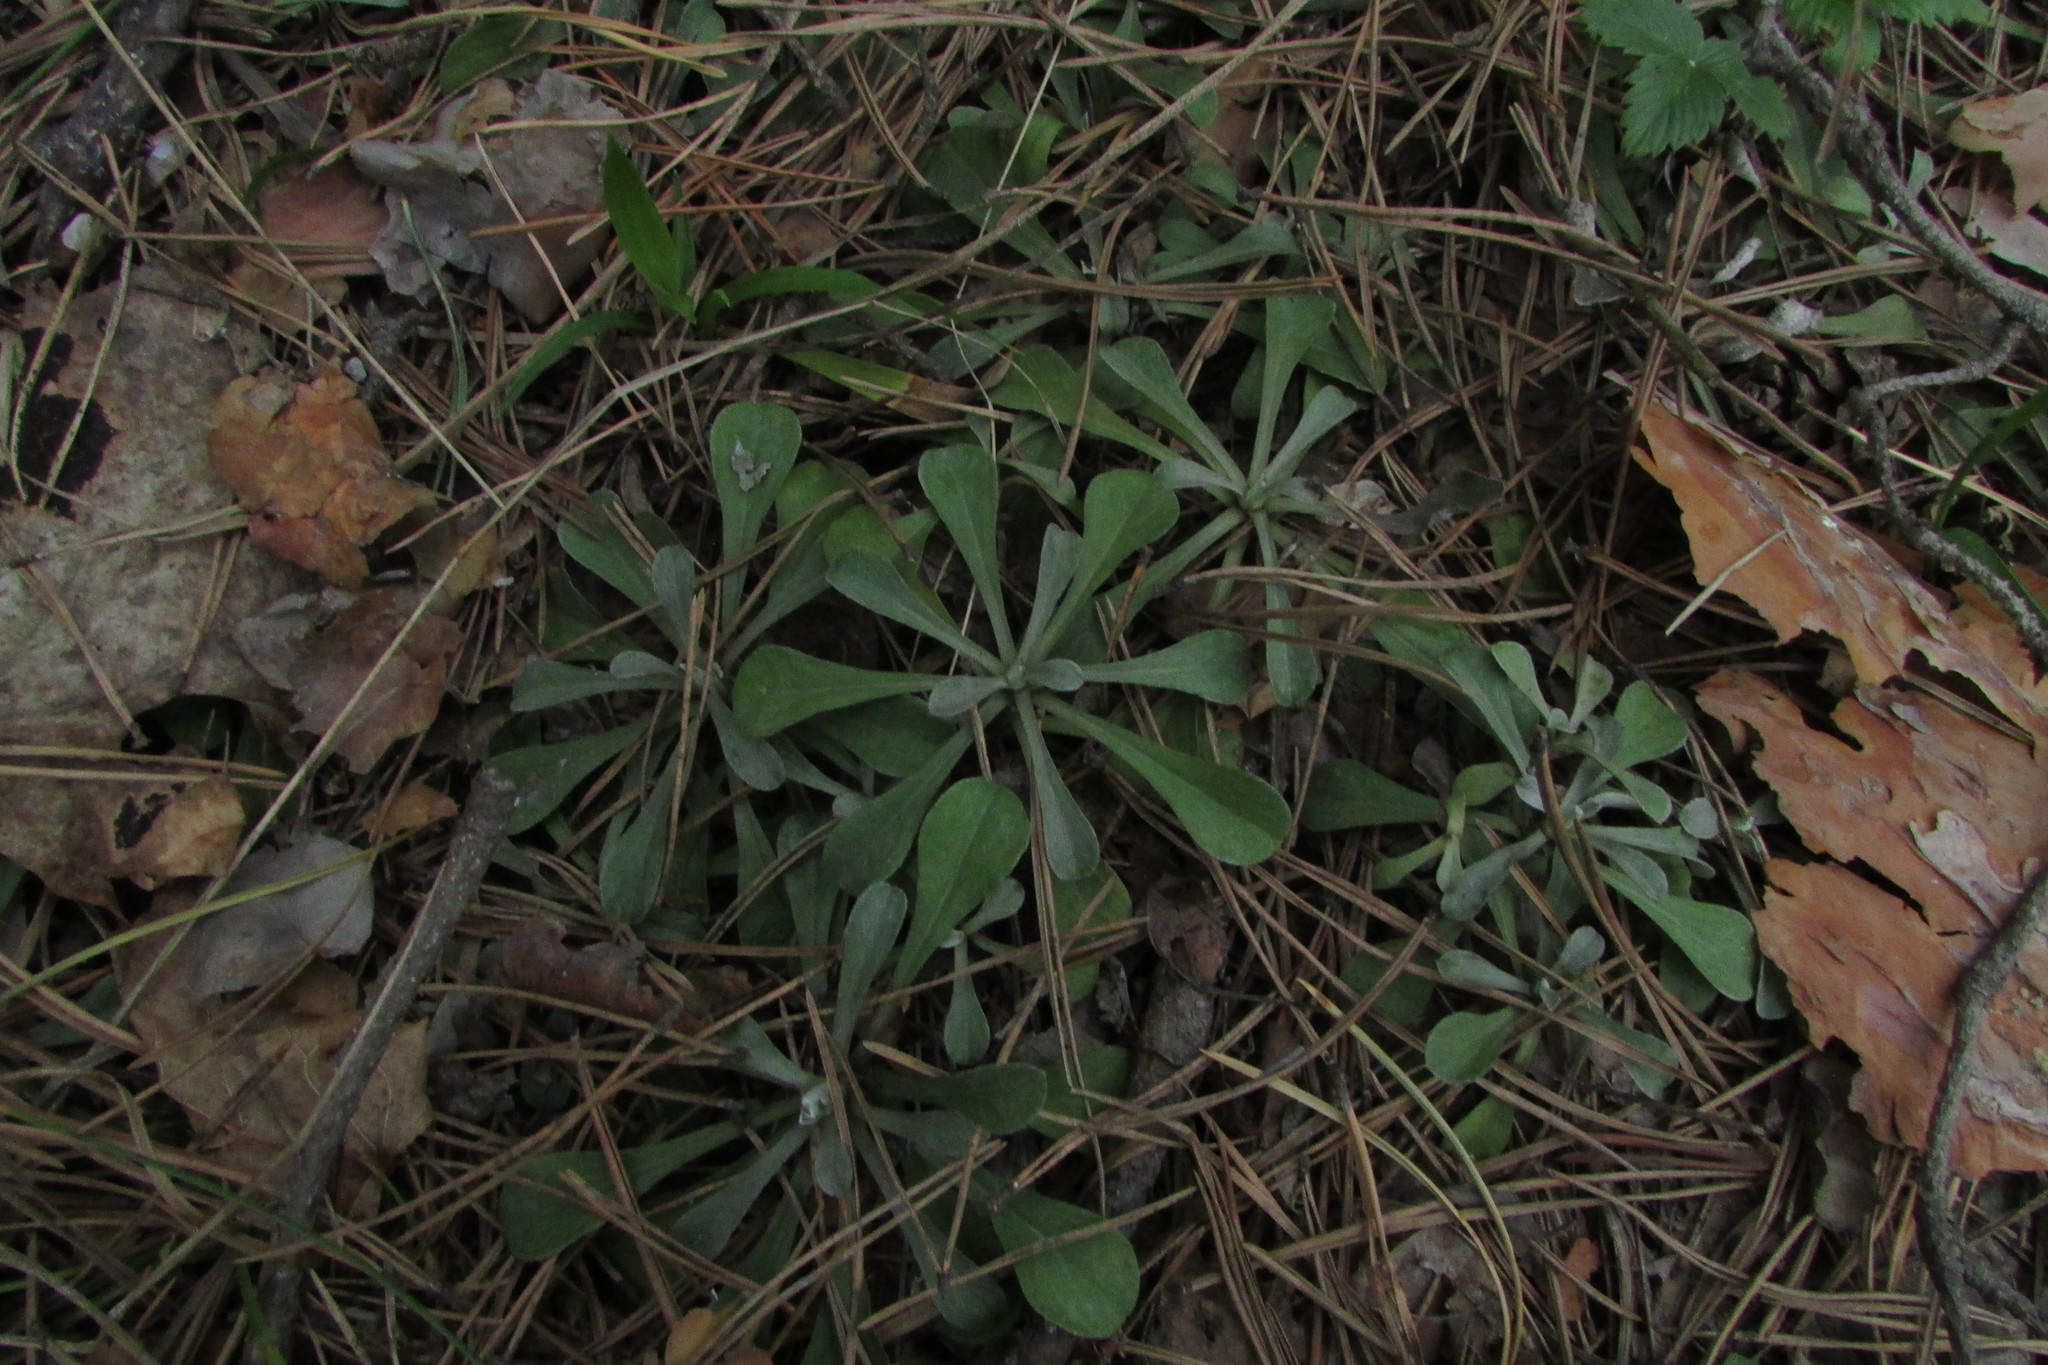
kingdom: Plantae
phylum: Tracheophyta
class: Magnoliopsida
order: Asterales
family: Asteraceae
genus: Antennaria
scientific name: Antennaria dioica
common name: Mountain everlasting
